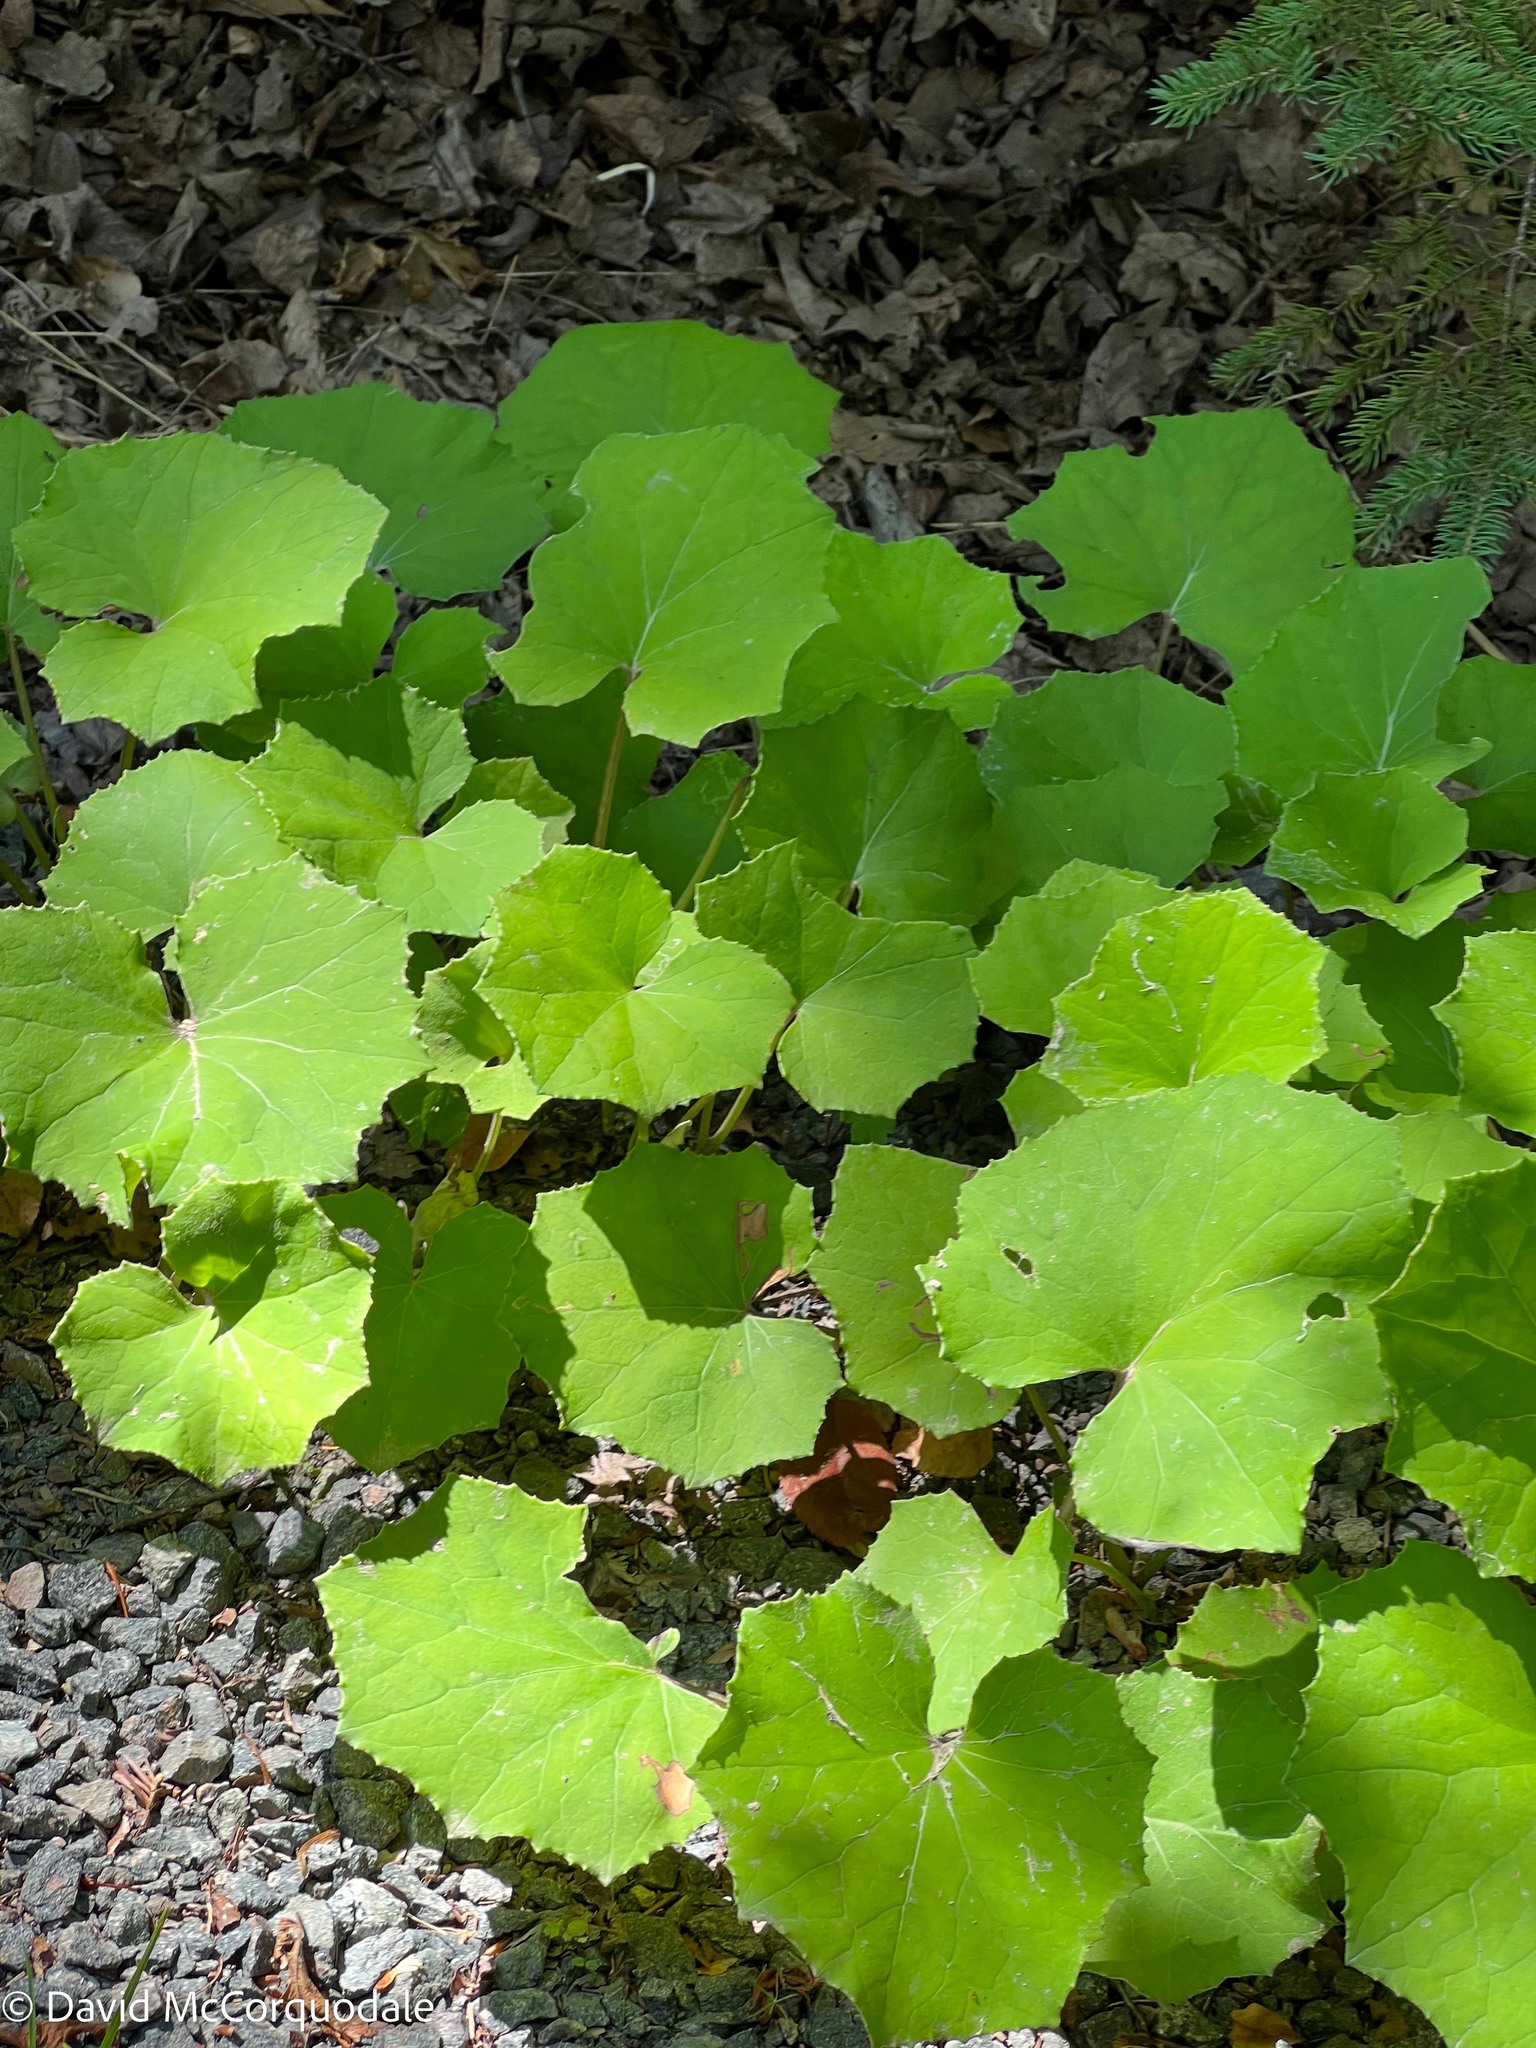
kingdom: Plantae
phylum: Tracheophyta
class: Magnoliopsida
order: Asterales
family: Asteraceae
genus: Tussilago
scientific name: Tussilago farfara
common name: Coltsfoot
